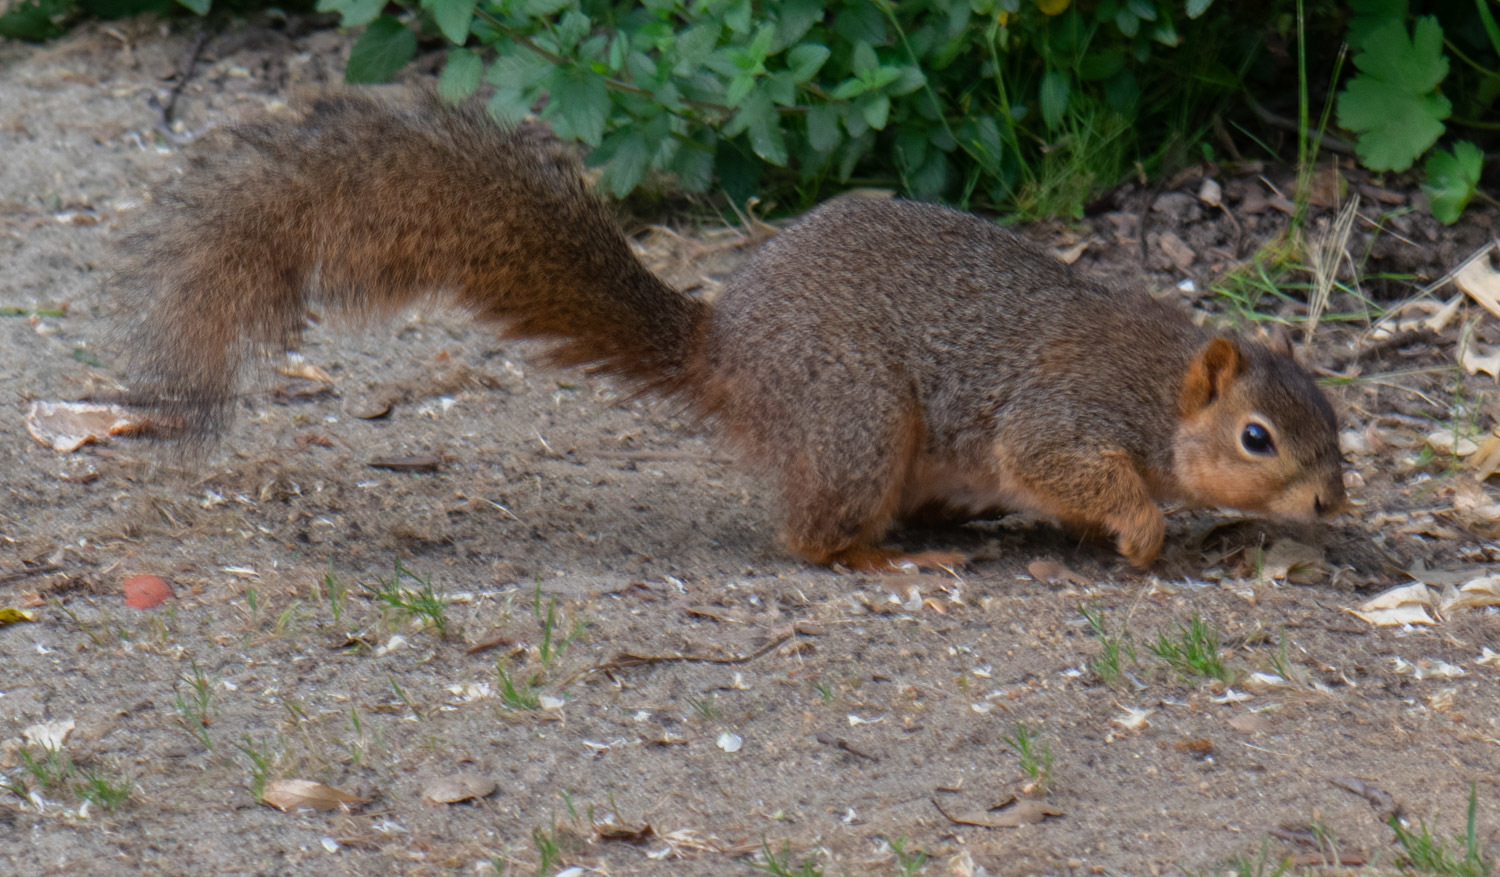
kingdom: Animalia
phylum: Chordata
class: Mammalia
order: Rodentia
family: Sciuridae
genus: Sciurus
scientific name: Sciurus niger
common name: Fox squirrel
